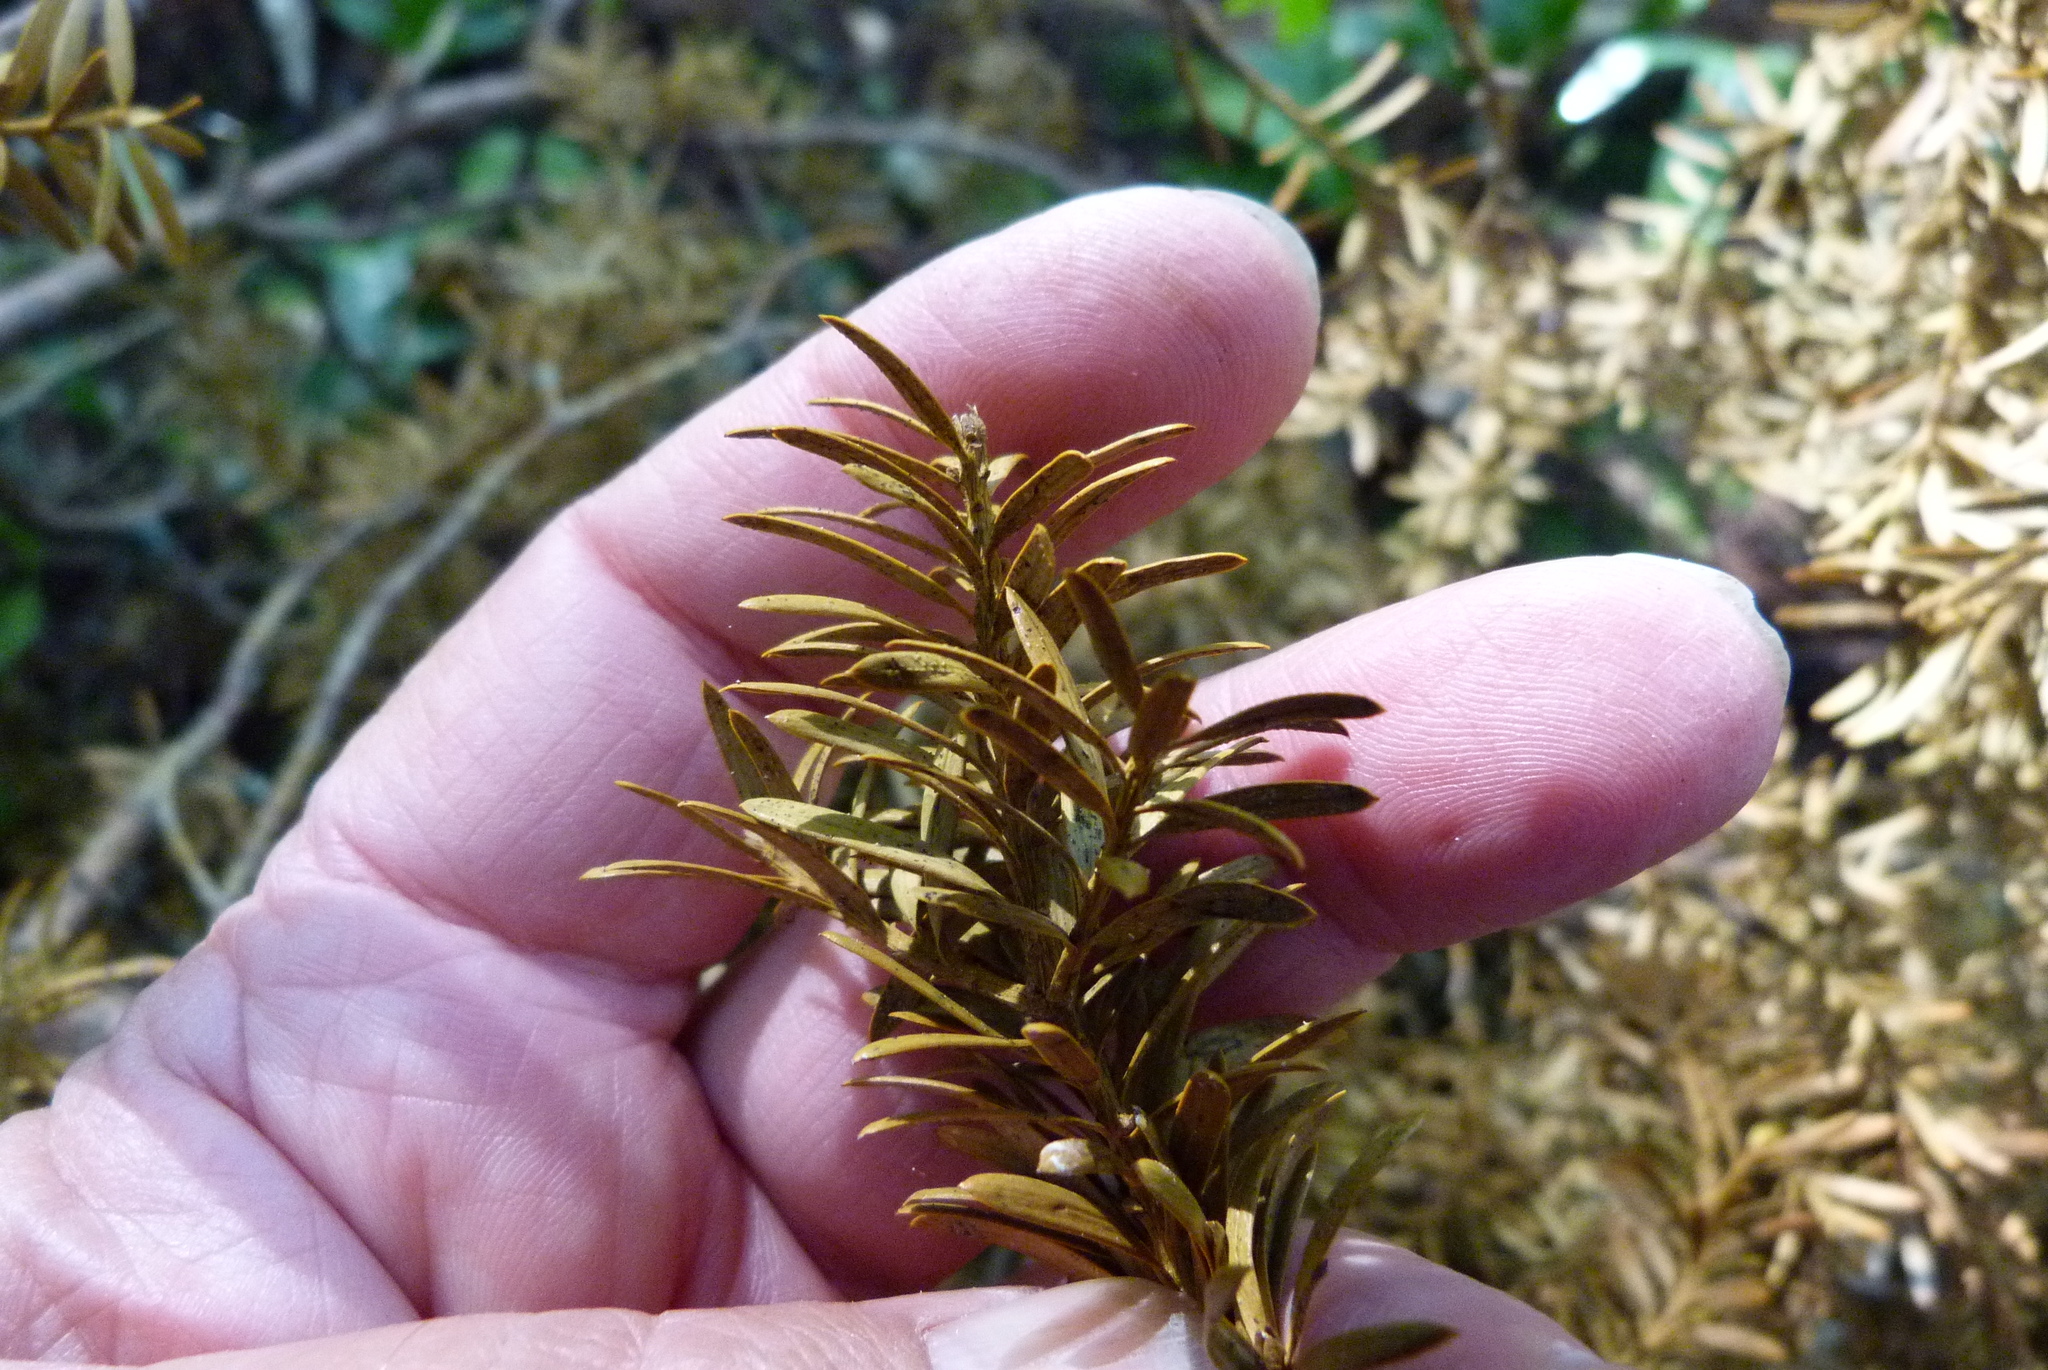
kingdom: Plantae
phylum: Tracheophyta
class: Pinopsida
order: Pinales
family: Podocarpaceae
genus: Podocarpus
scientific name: Podocarpus totara
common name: Totara
